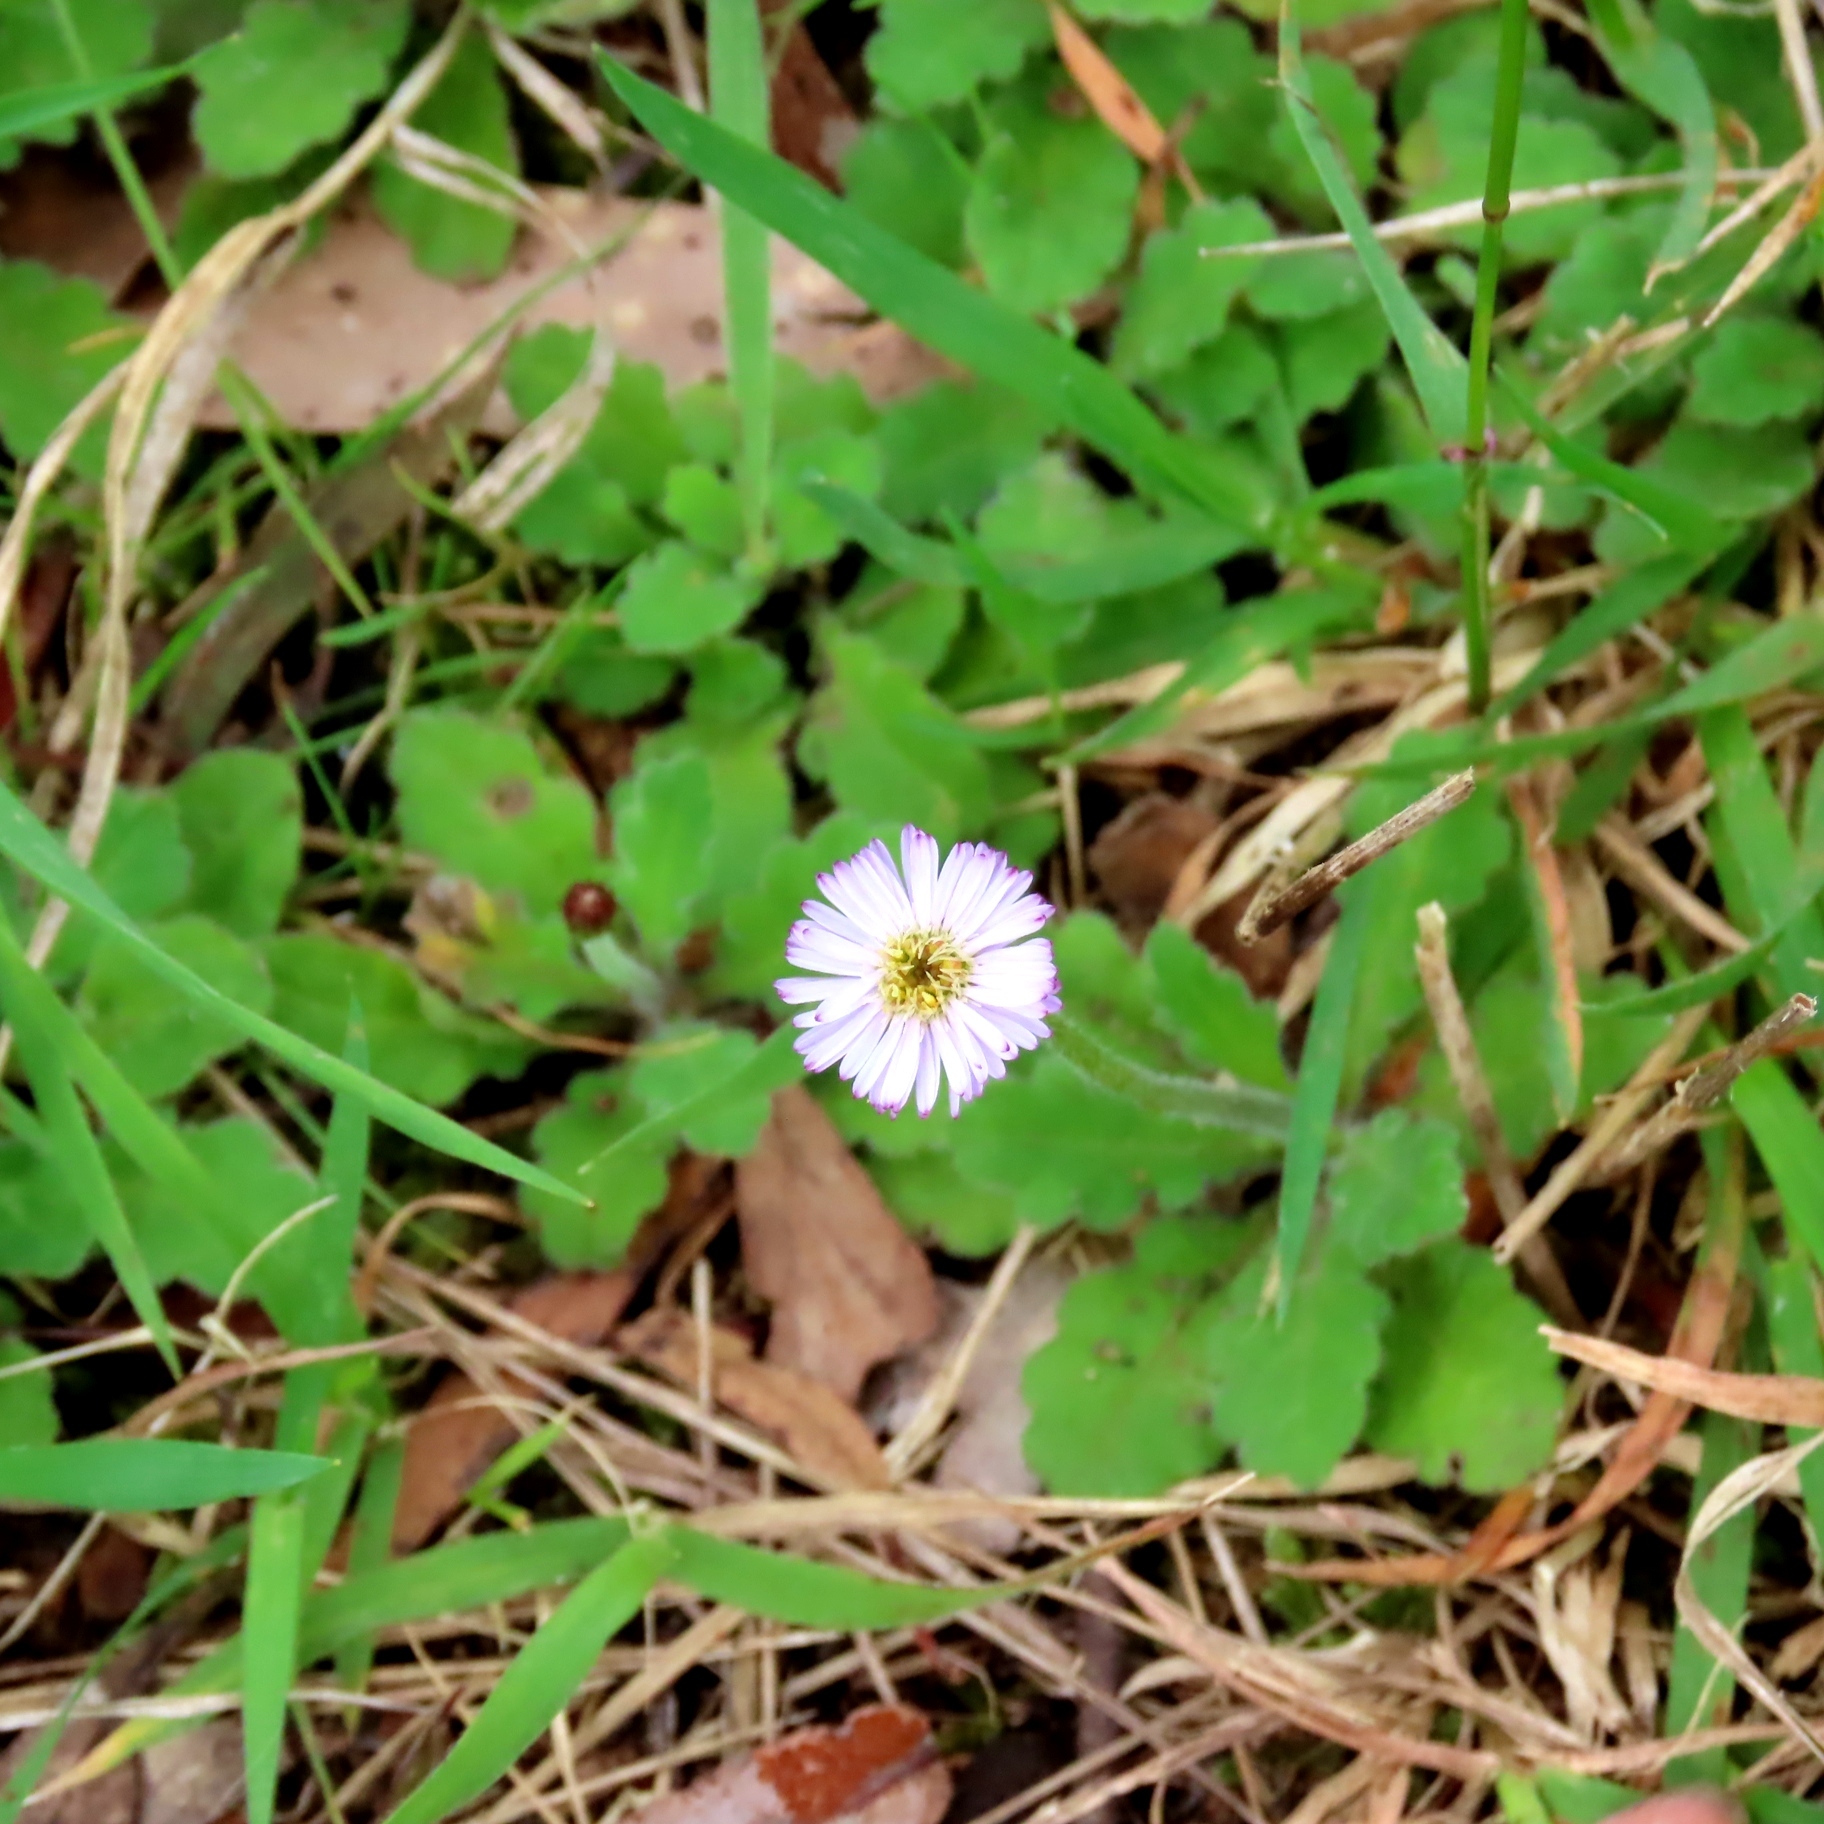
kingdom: Plantae
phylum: Tracheophyta
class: Magnoliopsida
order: Asterales
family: Asteraceae
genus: Lagenophora
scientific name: Lagenophora stipitata
